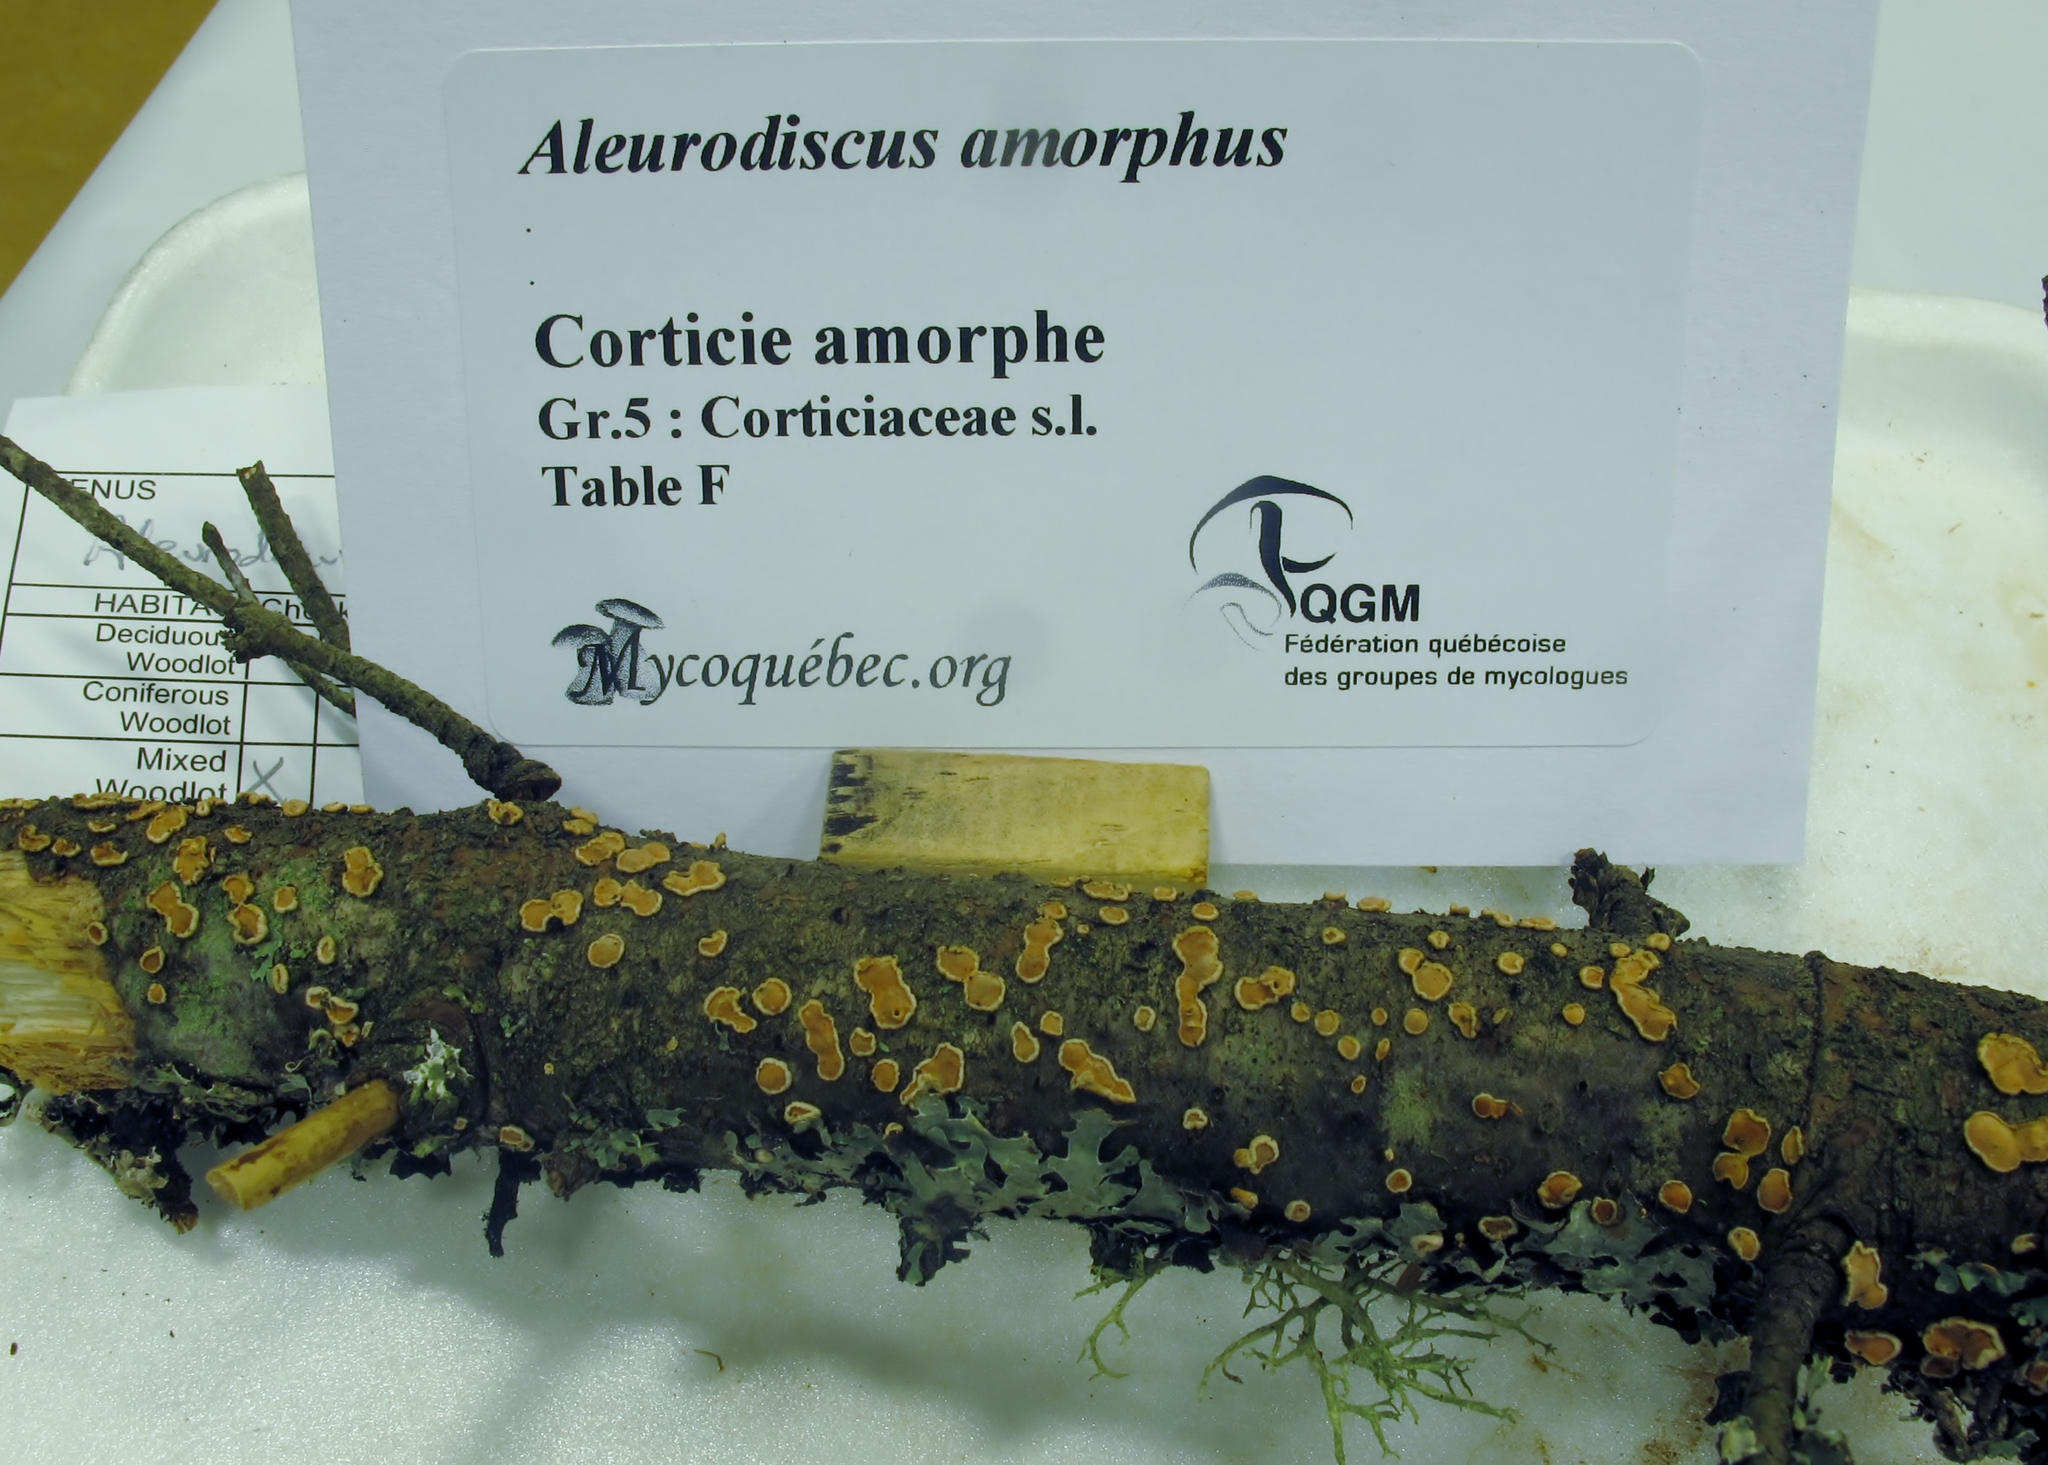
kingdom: Fungi
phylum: Basidiomycota
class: Agaricomycetes
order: Russulales
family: Stereaceae
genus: Aleurodiscus
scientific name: Aleurodiscus amorphus
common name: Orange discus
